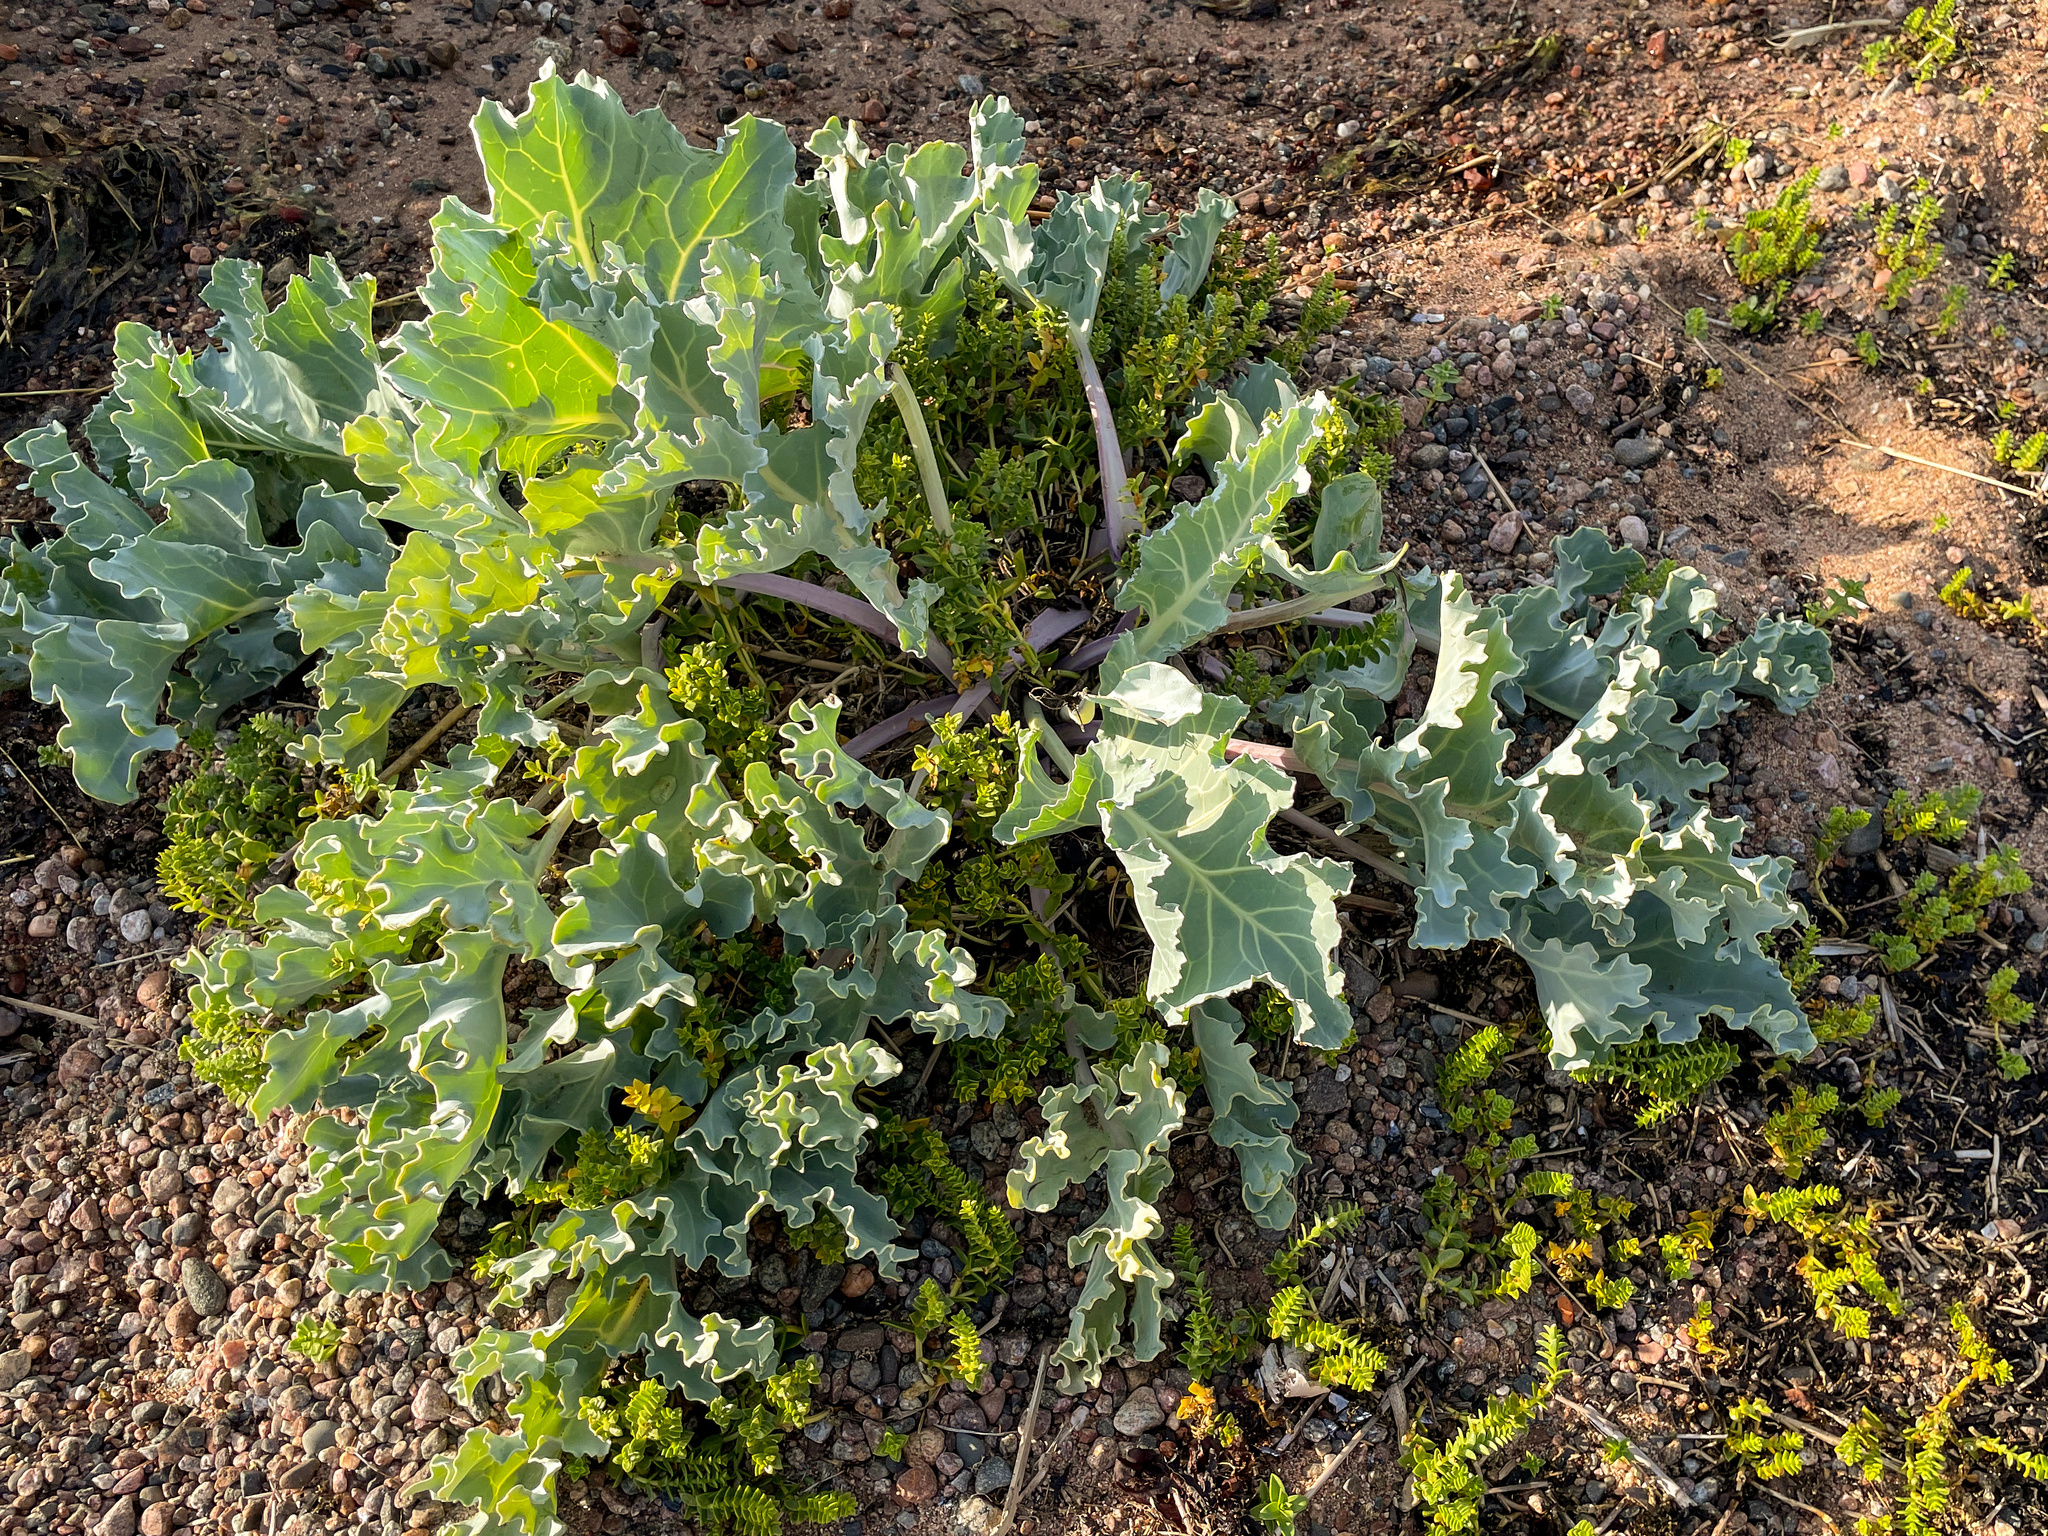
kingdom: Plantae
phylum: Tracheophyta
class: Magnoliopsida
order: Brassicales
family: Brassicaceae
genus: Crambe
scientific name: Crambe maritima
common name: Sea-kale
